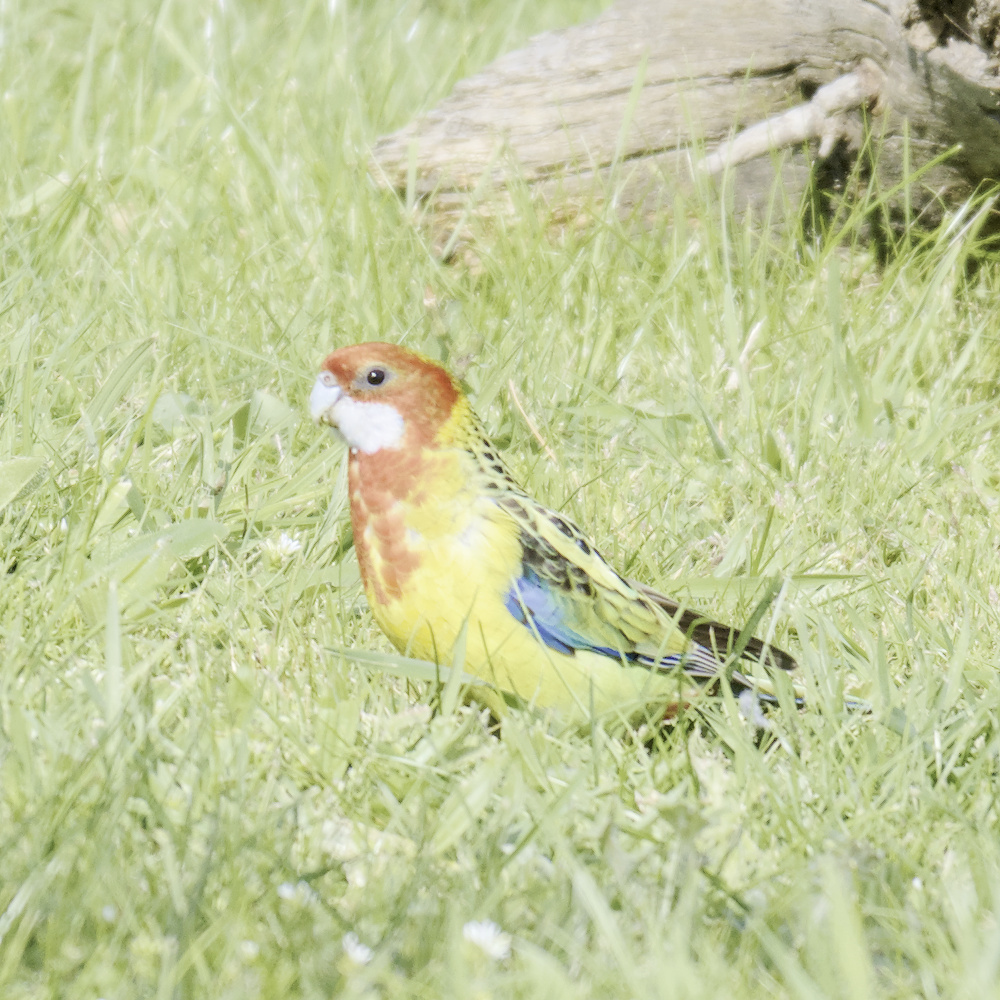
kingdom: Animalia
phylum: Chordata
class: Aves
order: Psittaciformes
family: Psittacidae
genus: Platycercus
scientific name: Platycercus eximius
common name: Eastern rosella
